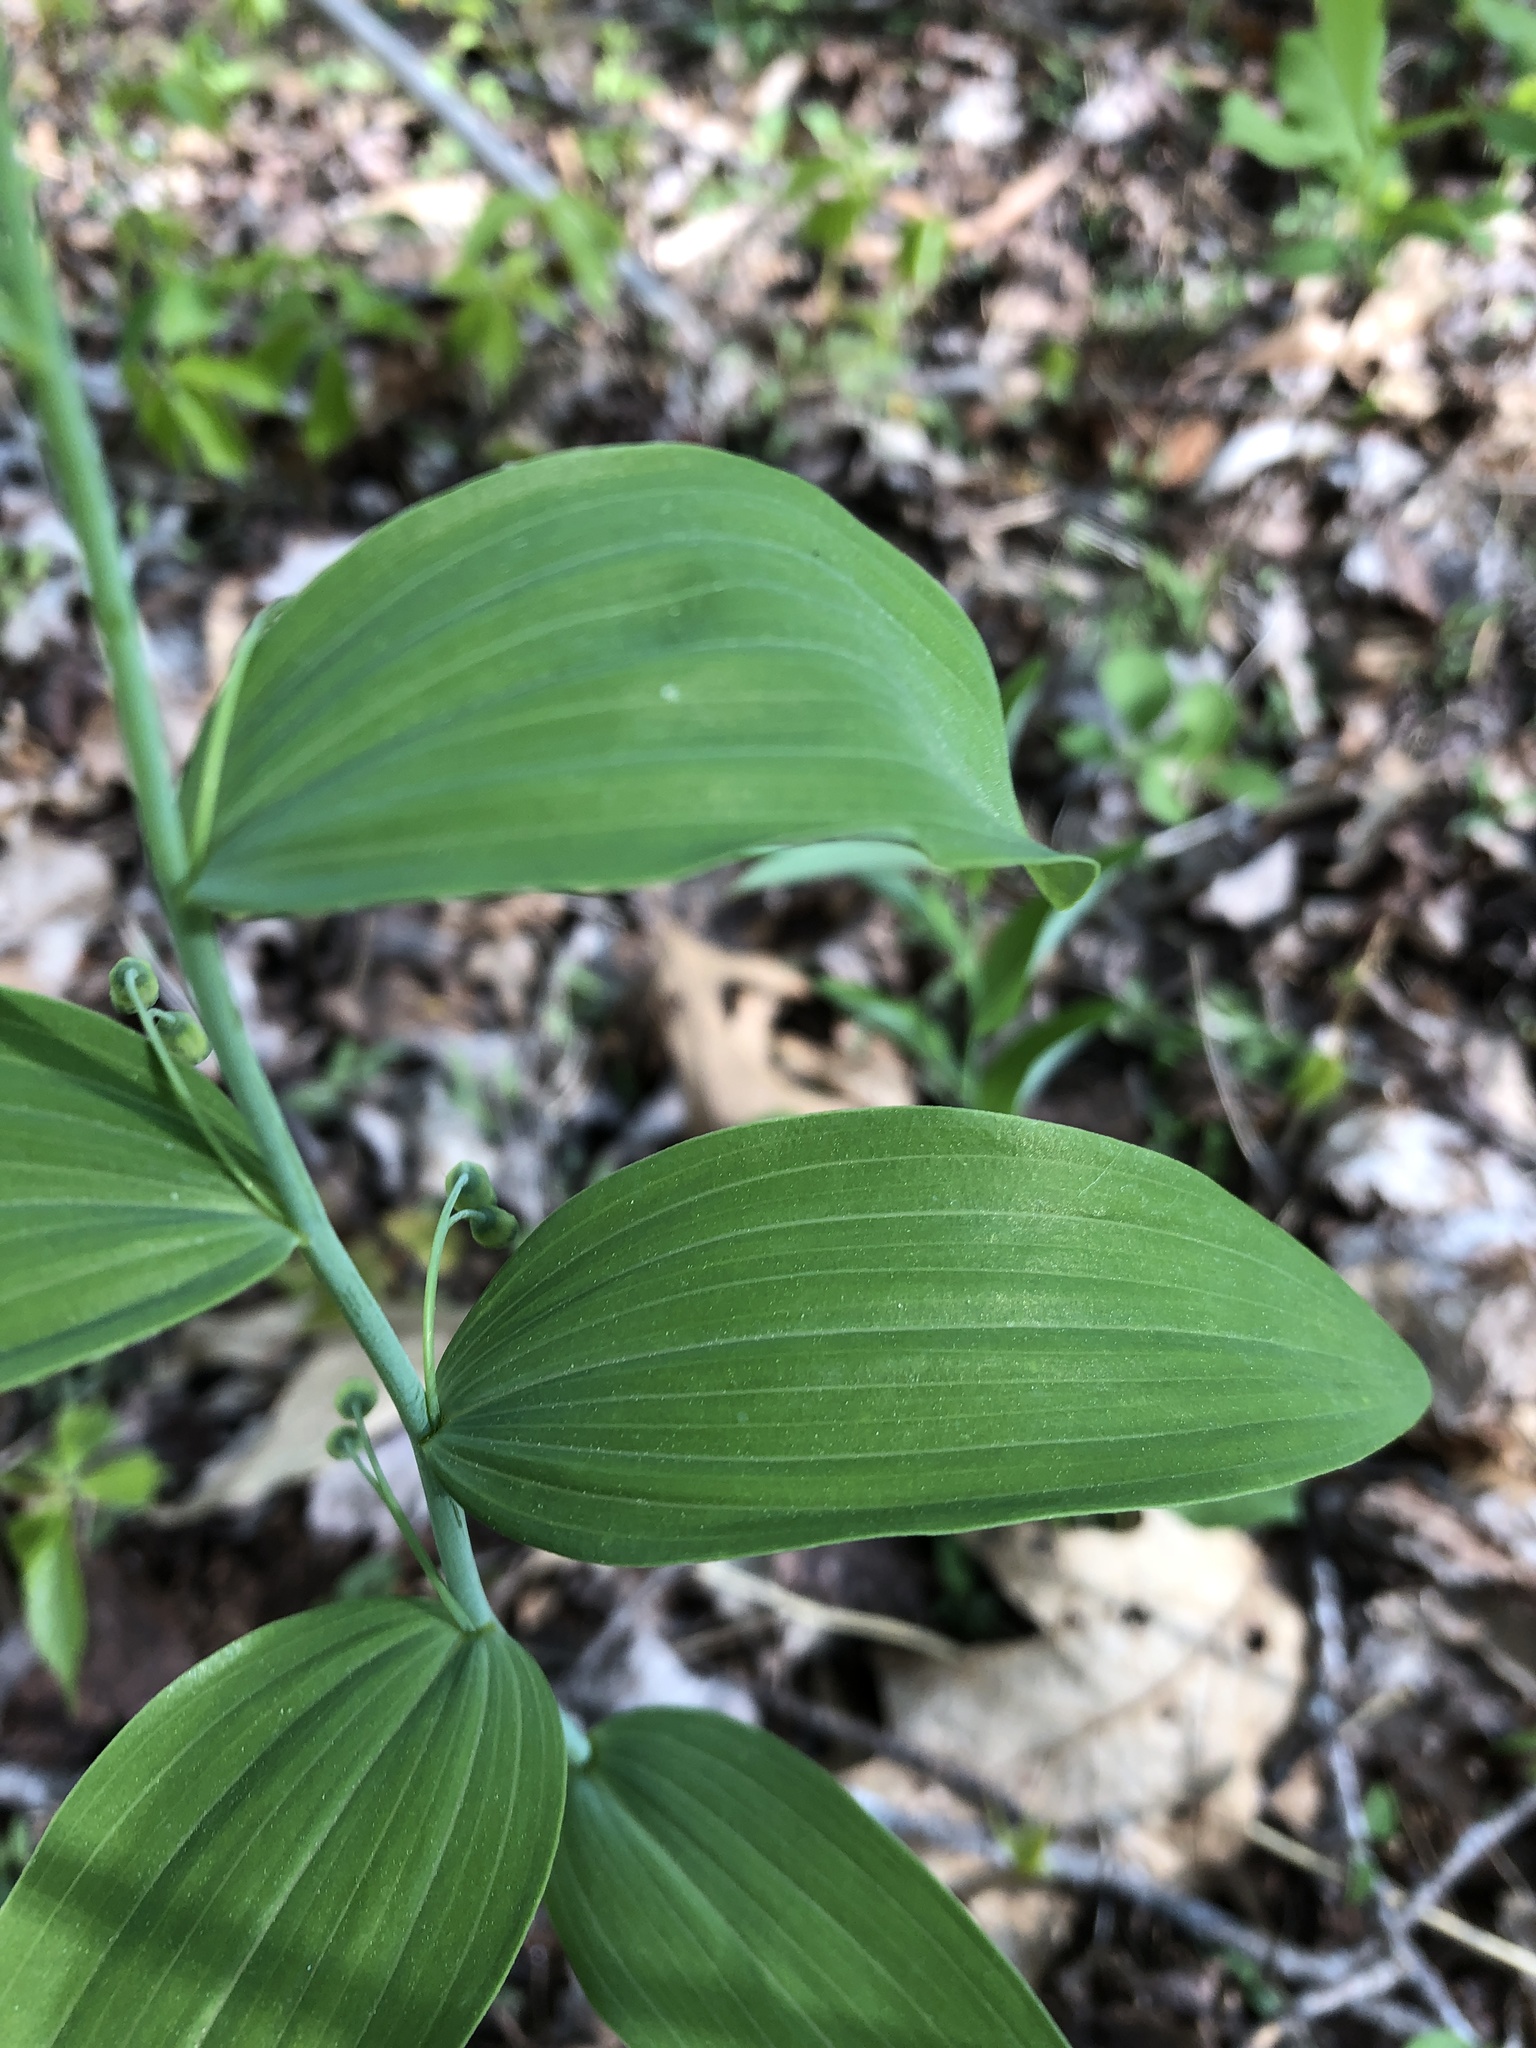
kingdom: Plantae
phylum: Tracheophyta
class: Liliopsida
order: Asparagales
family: Asparagaceae
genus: Polygonatum
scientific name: Polygonatum biflorum
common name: American solomon's-seal
